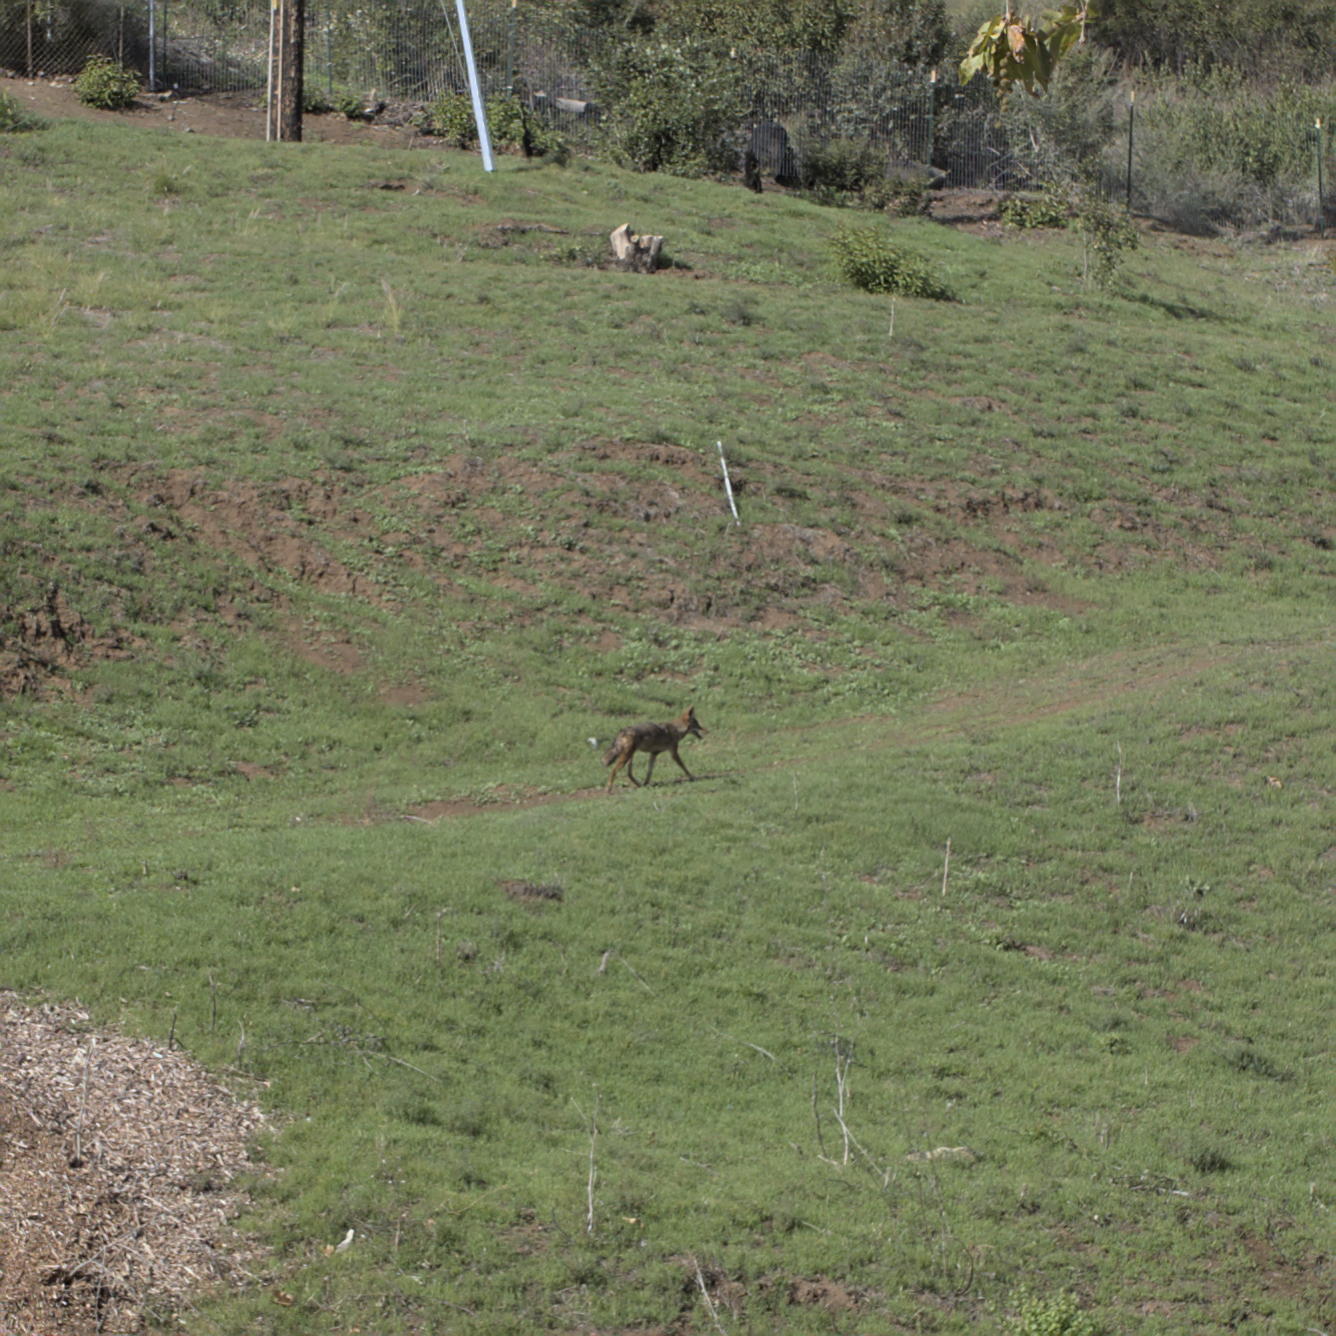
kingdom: Animalia
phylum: Chordata
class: Mammalia
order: Carnivora
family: Canidae
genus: Canis
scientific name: Canis latrans
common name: Coyote
